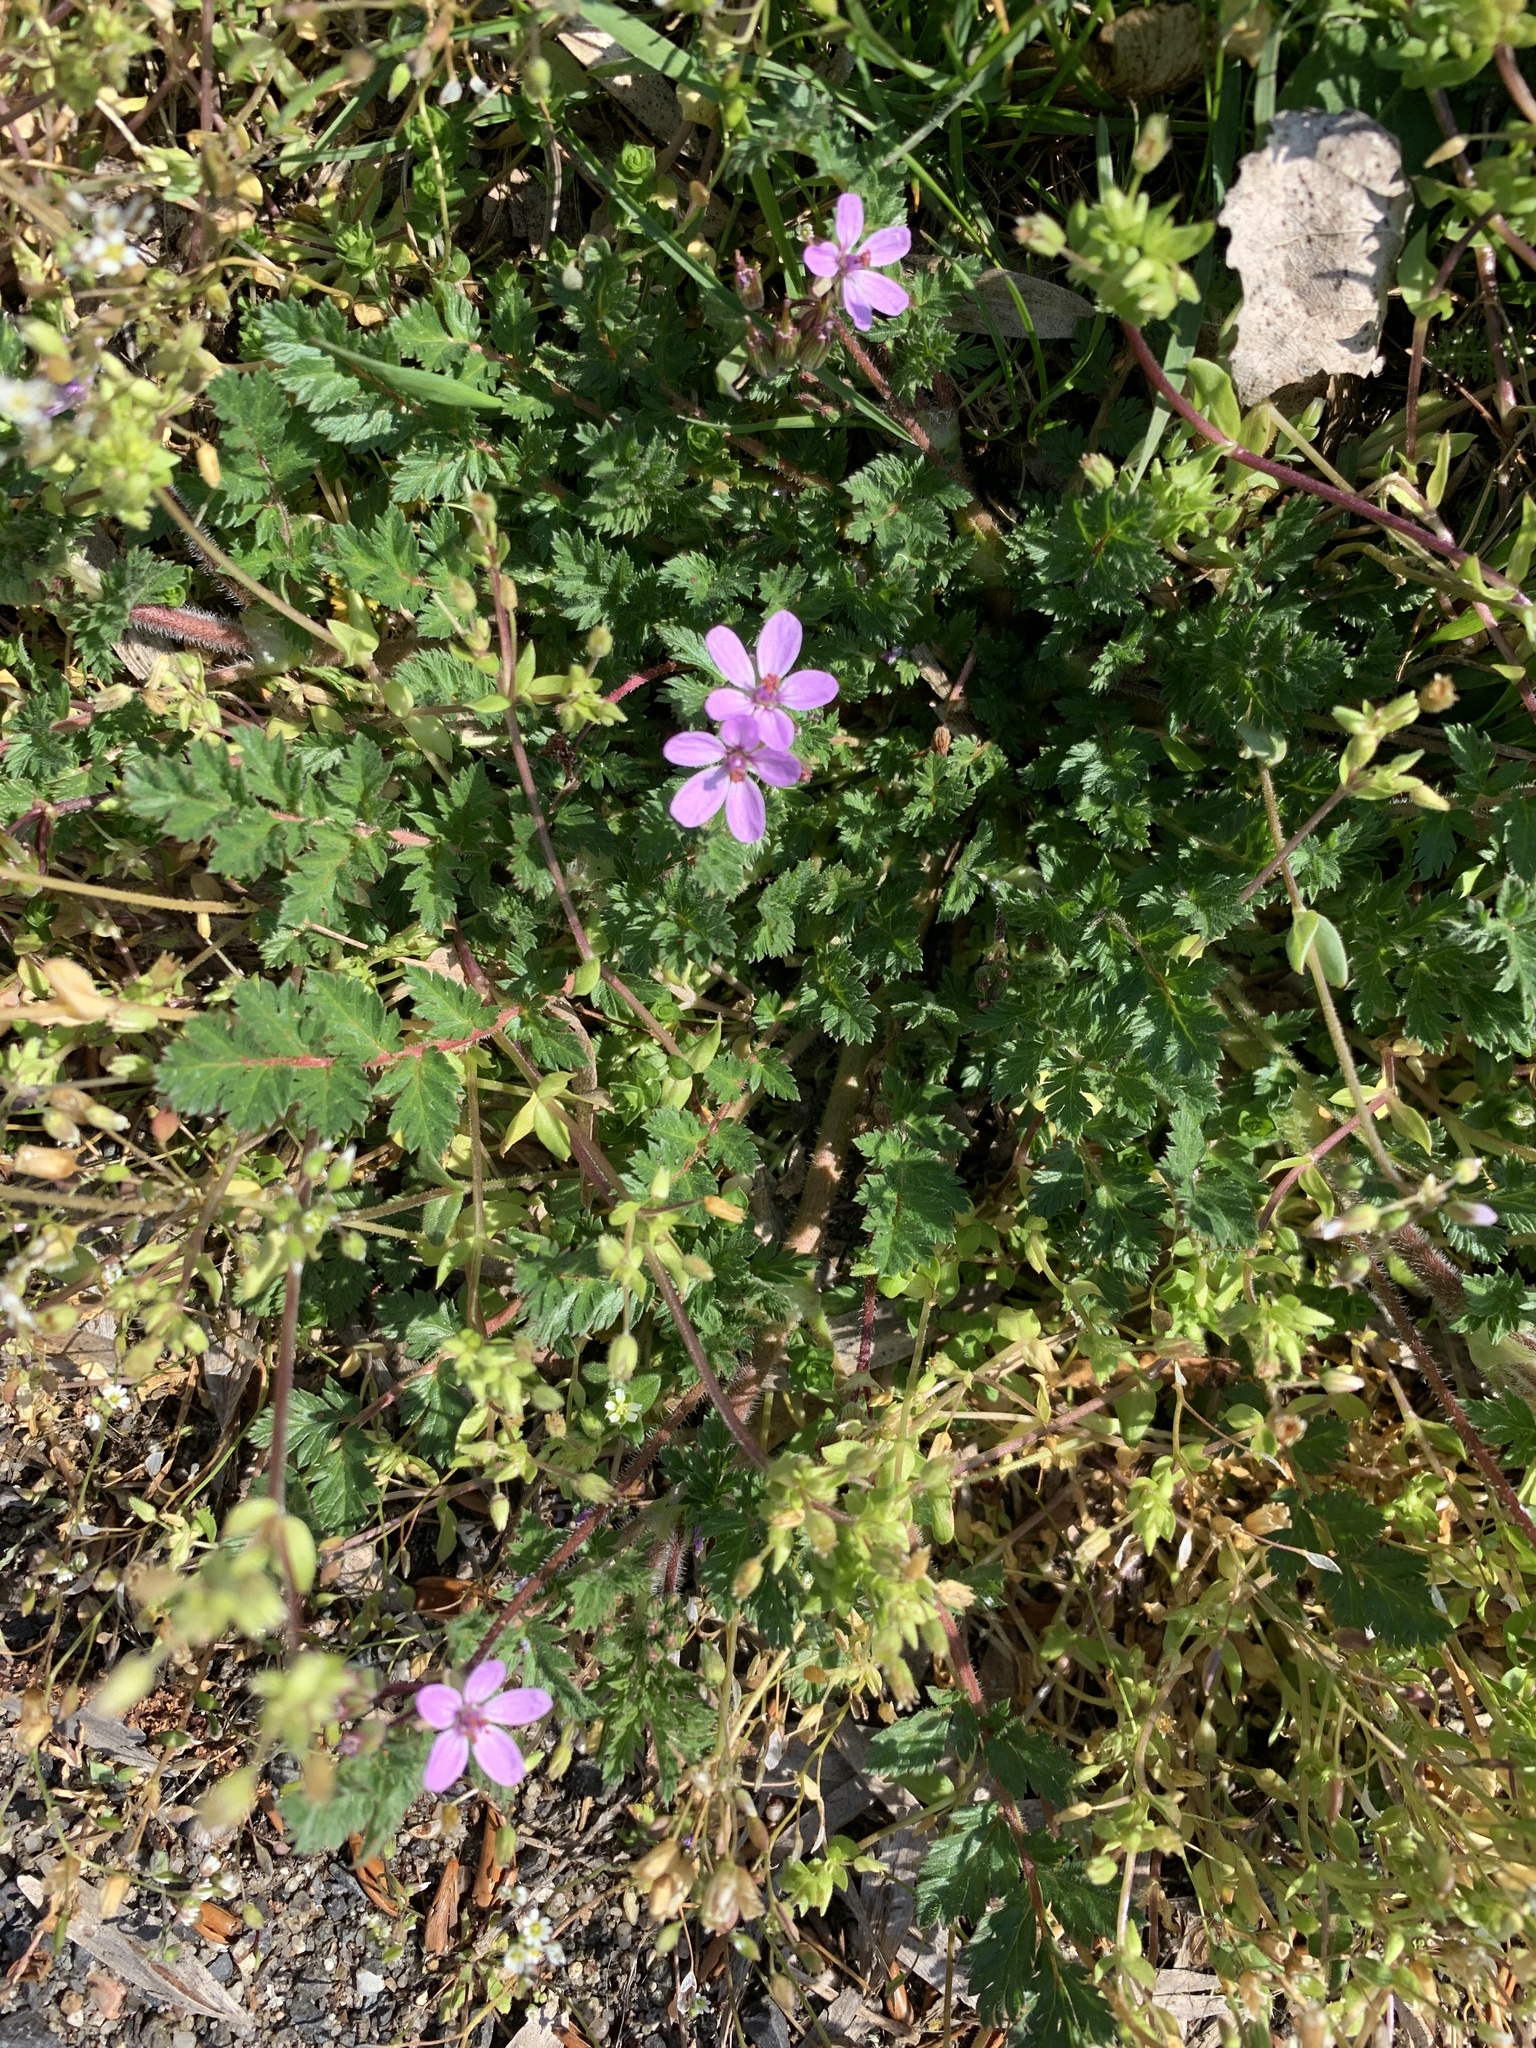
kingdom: Plantae
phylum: Tracheophyta
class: Magnoliopsida
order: Geraniales
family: Geraniaceae
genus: Erodium
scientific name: Erodium cicutarium
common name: Common stork's-bill
